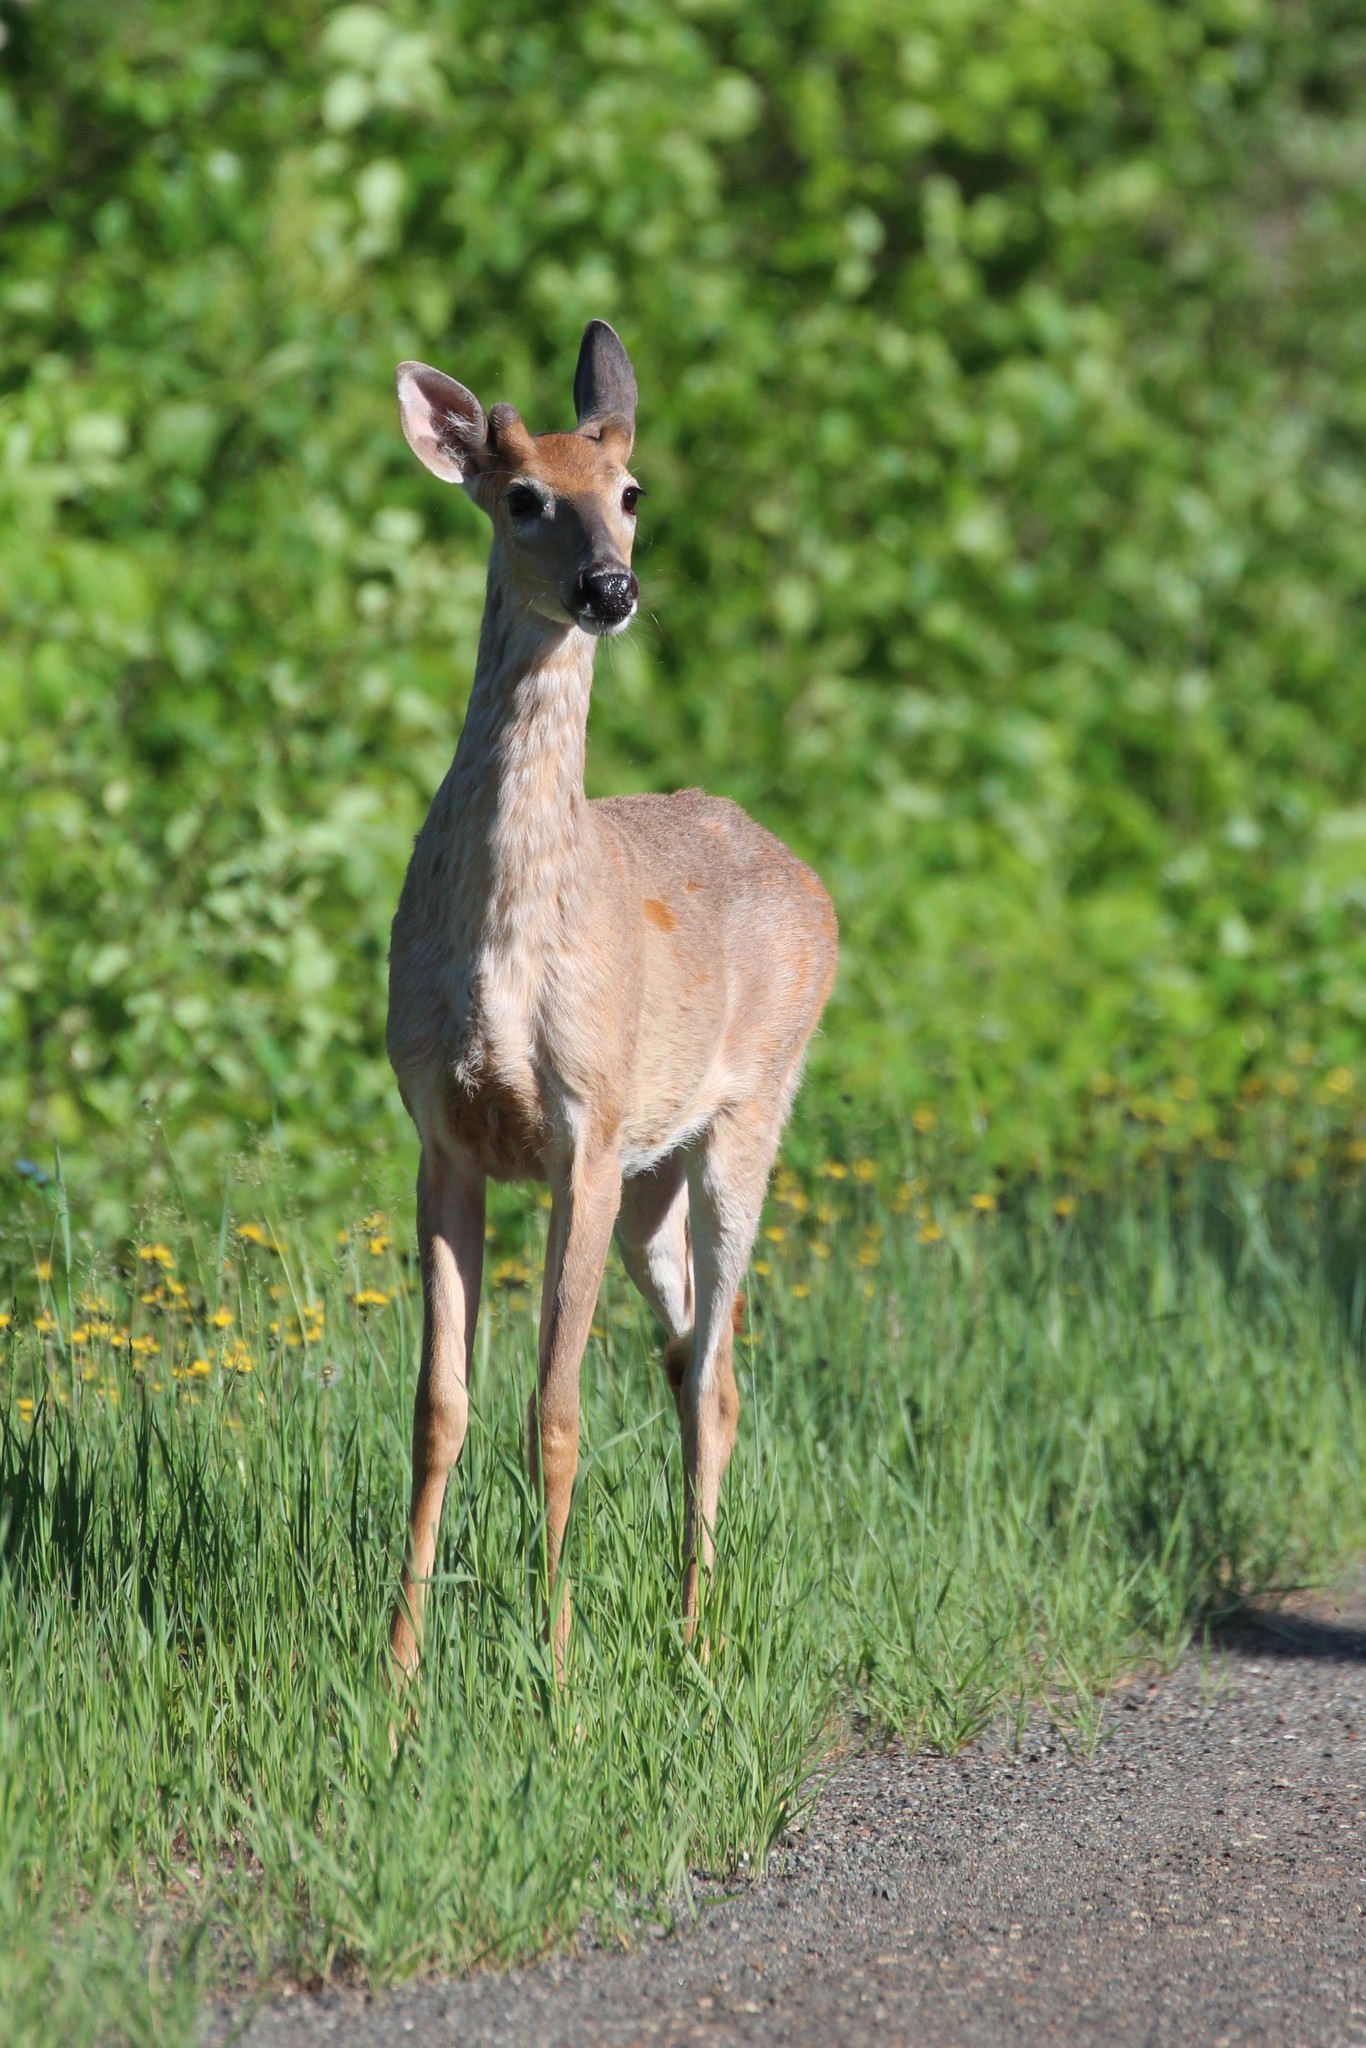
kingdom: Animalia
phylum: Chordata
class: Mammalia
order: Artiodactyla
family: Cervidae
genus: Odocoileus
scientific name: Odocoileus virginianus
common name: White-tailed deer
